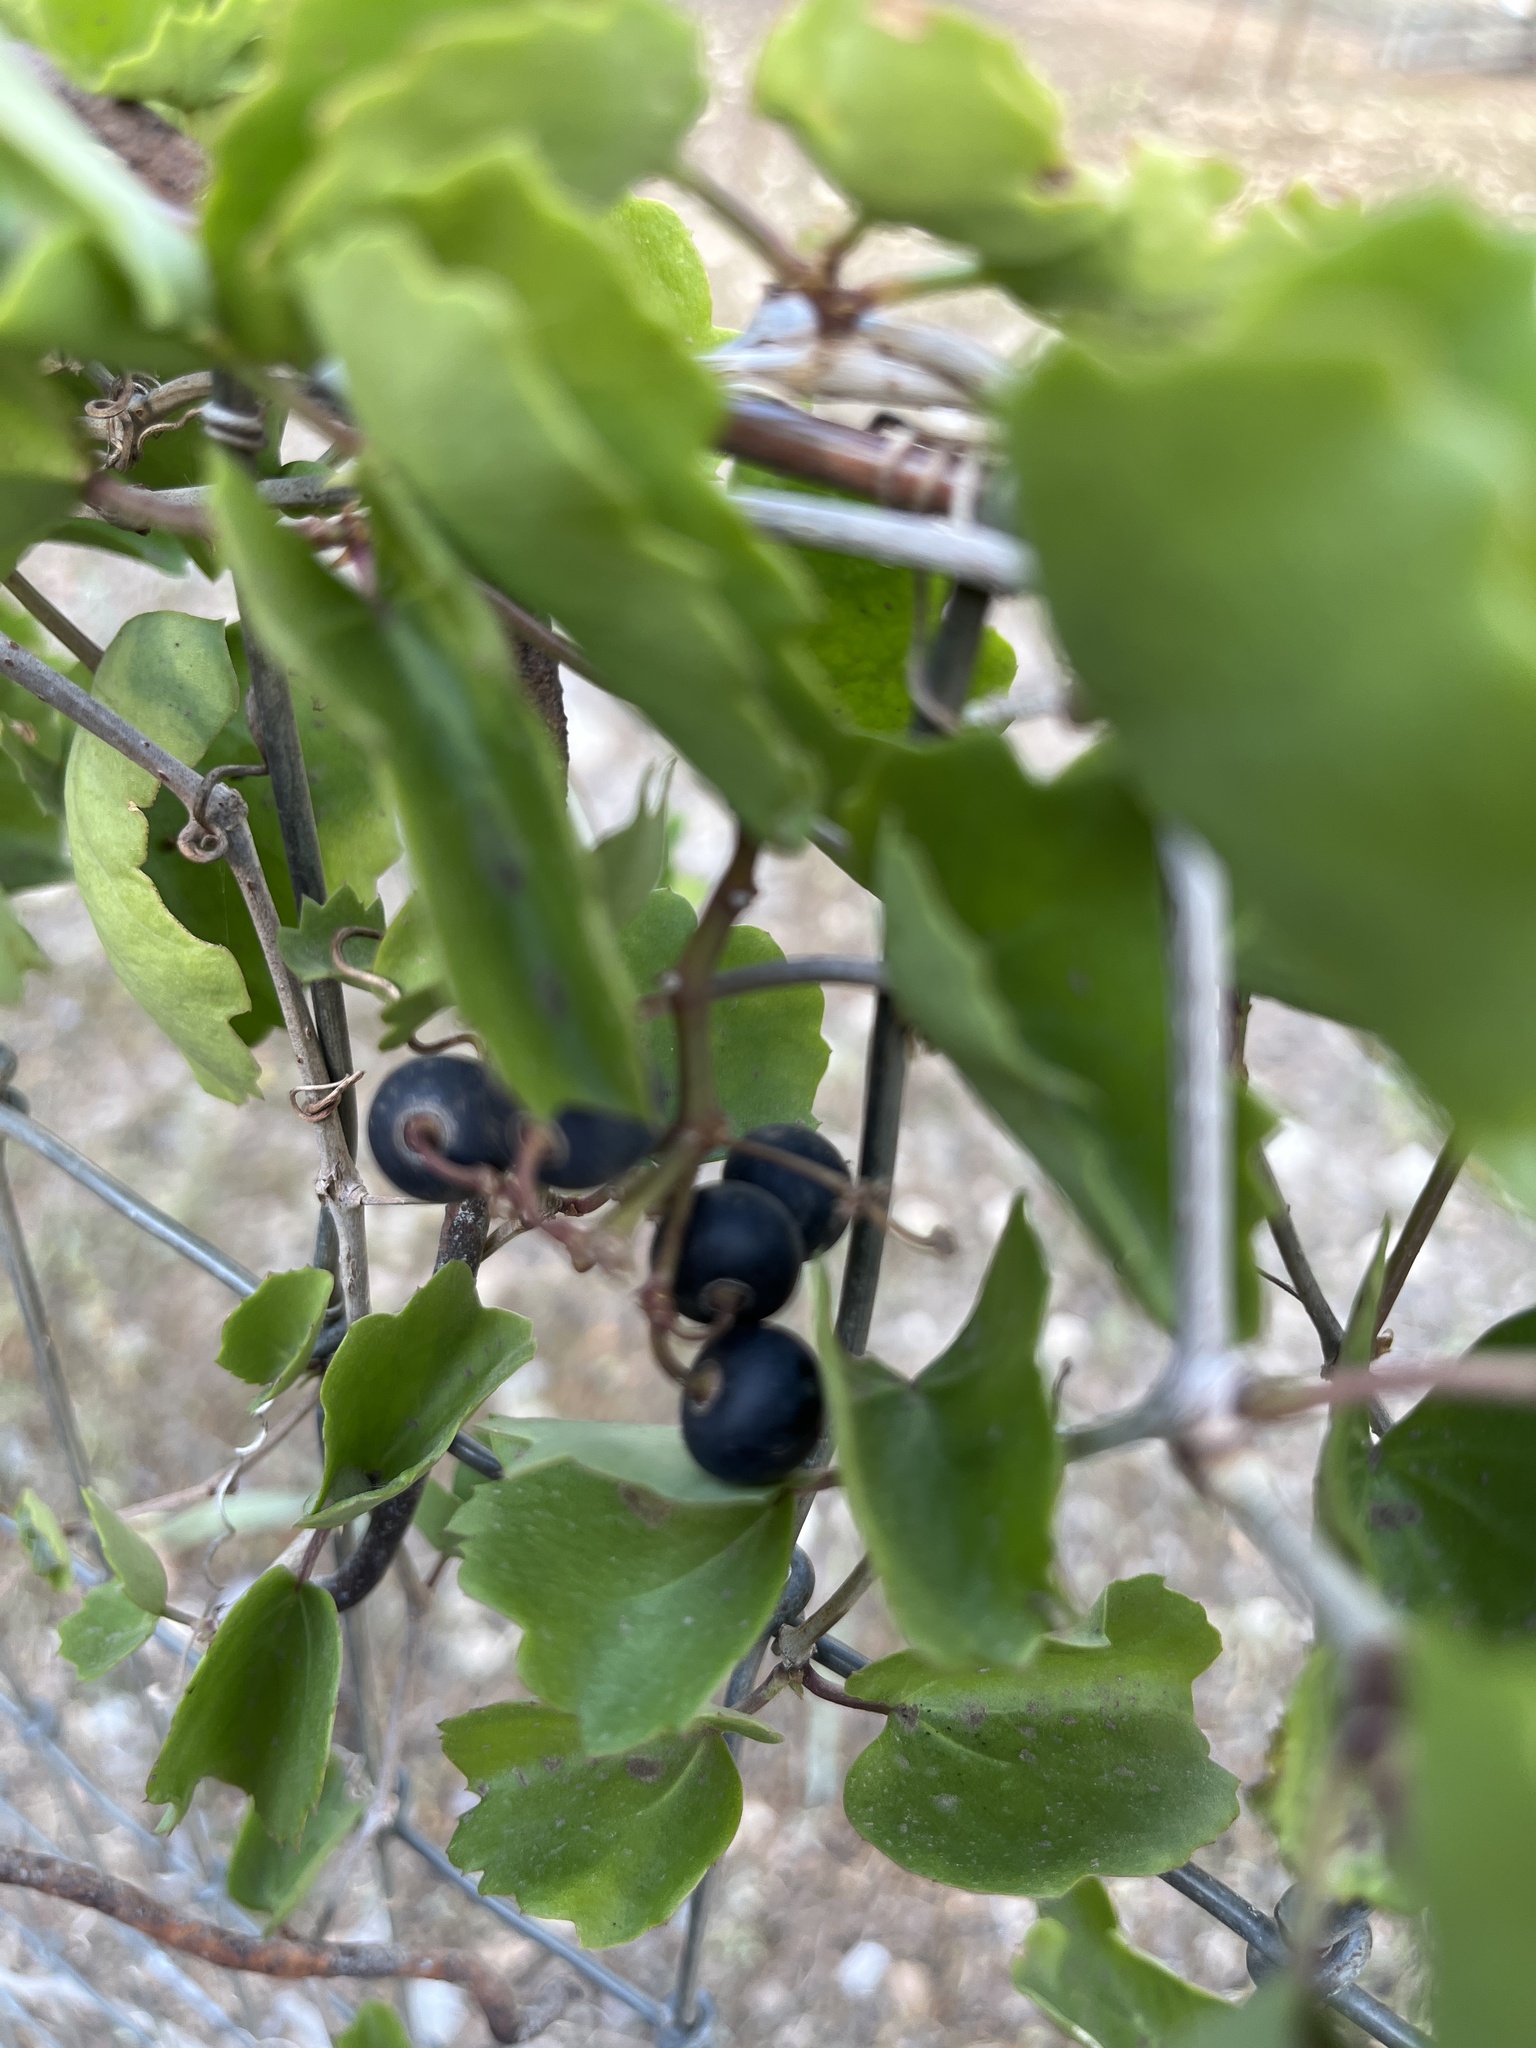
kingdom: Plantae
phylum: Tracheophyta
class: Magnoliopsida
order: Vitales
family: Vitaceae
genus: Cissus
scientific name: Cissus trifoliata
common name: Vine-sorrel
